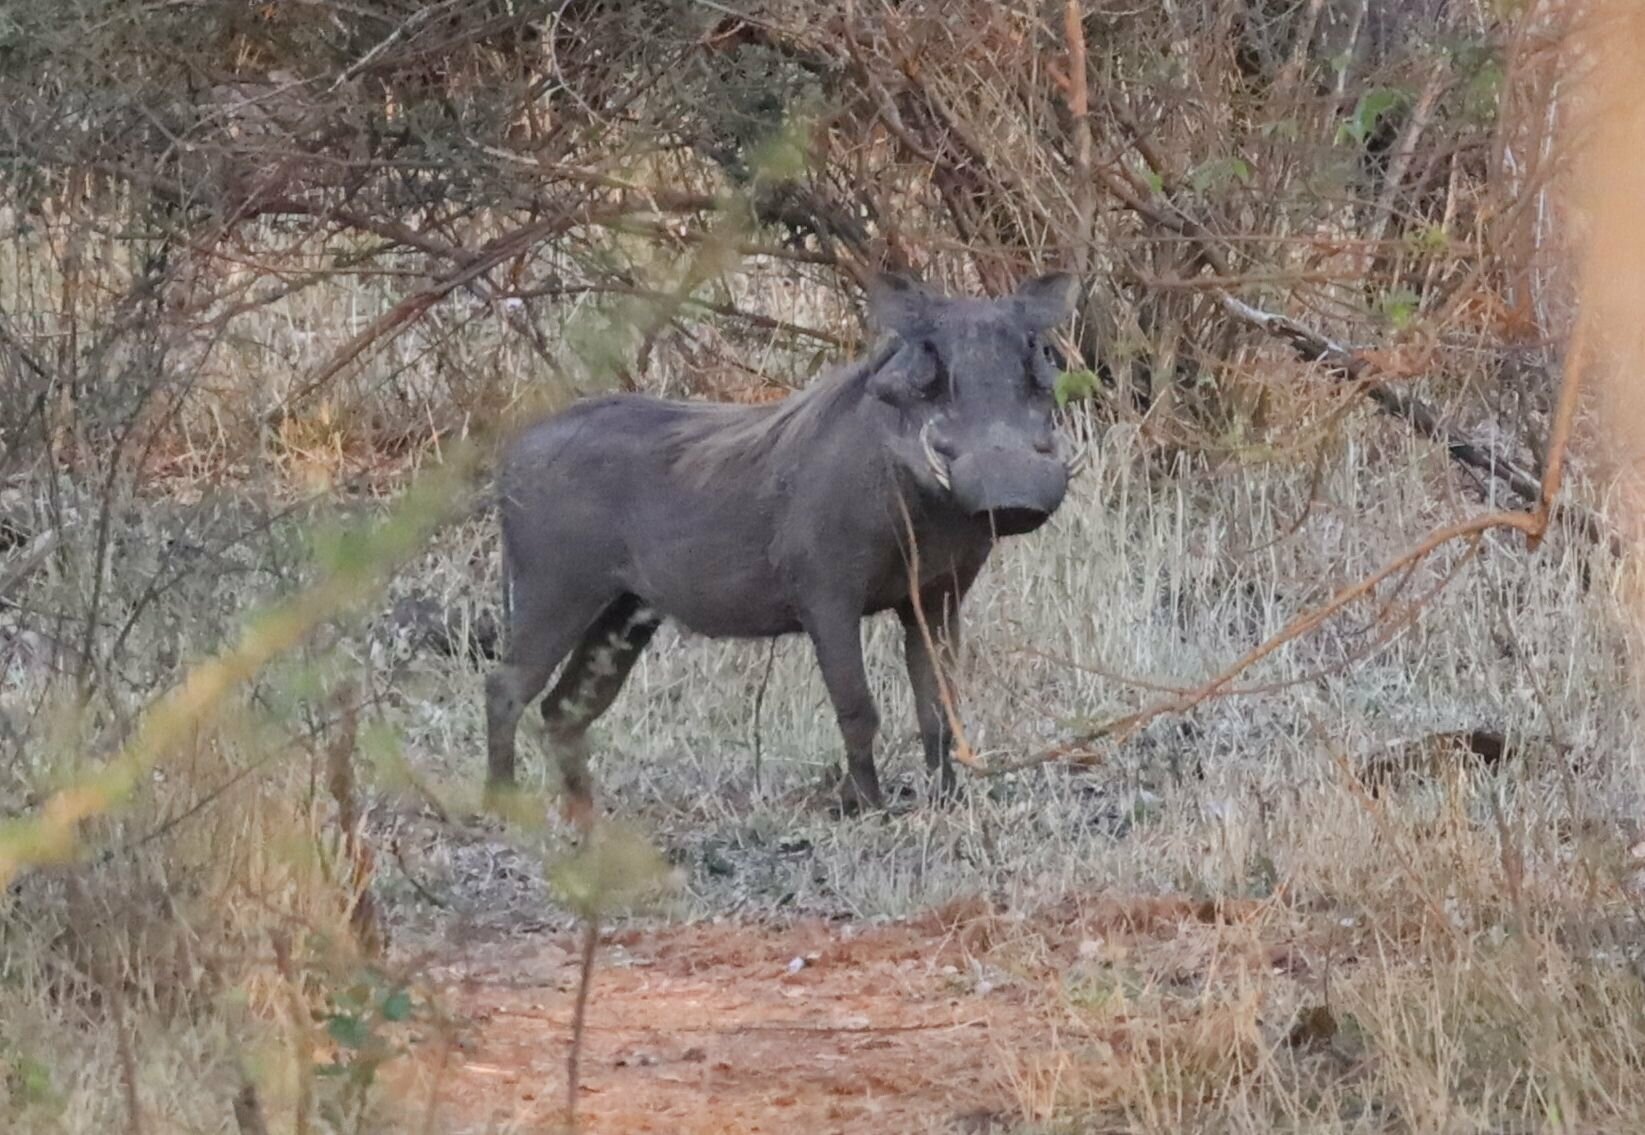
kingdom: Animalia
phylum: Chordata
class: Mammalia
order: Artiodactyla
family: Suidae
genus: Phacochoerus
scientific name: Phacochoerus africanus
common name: Common warthog
